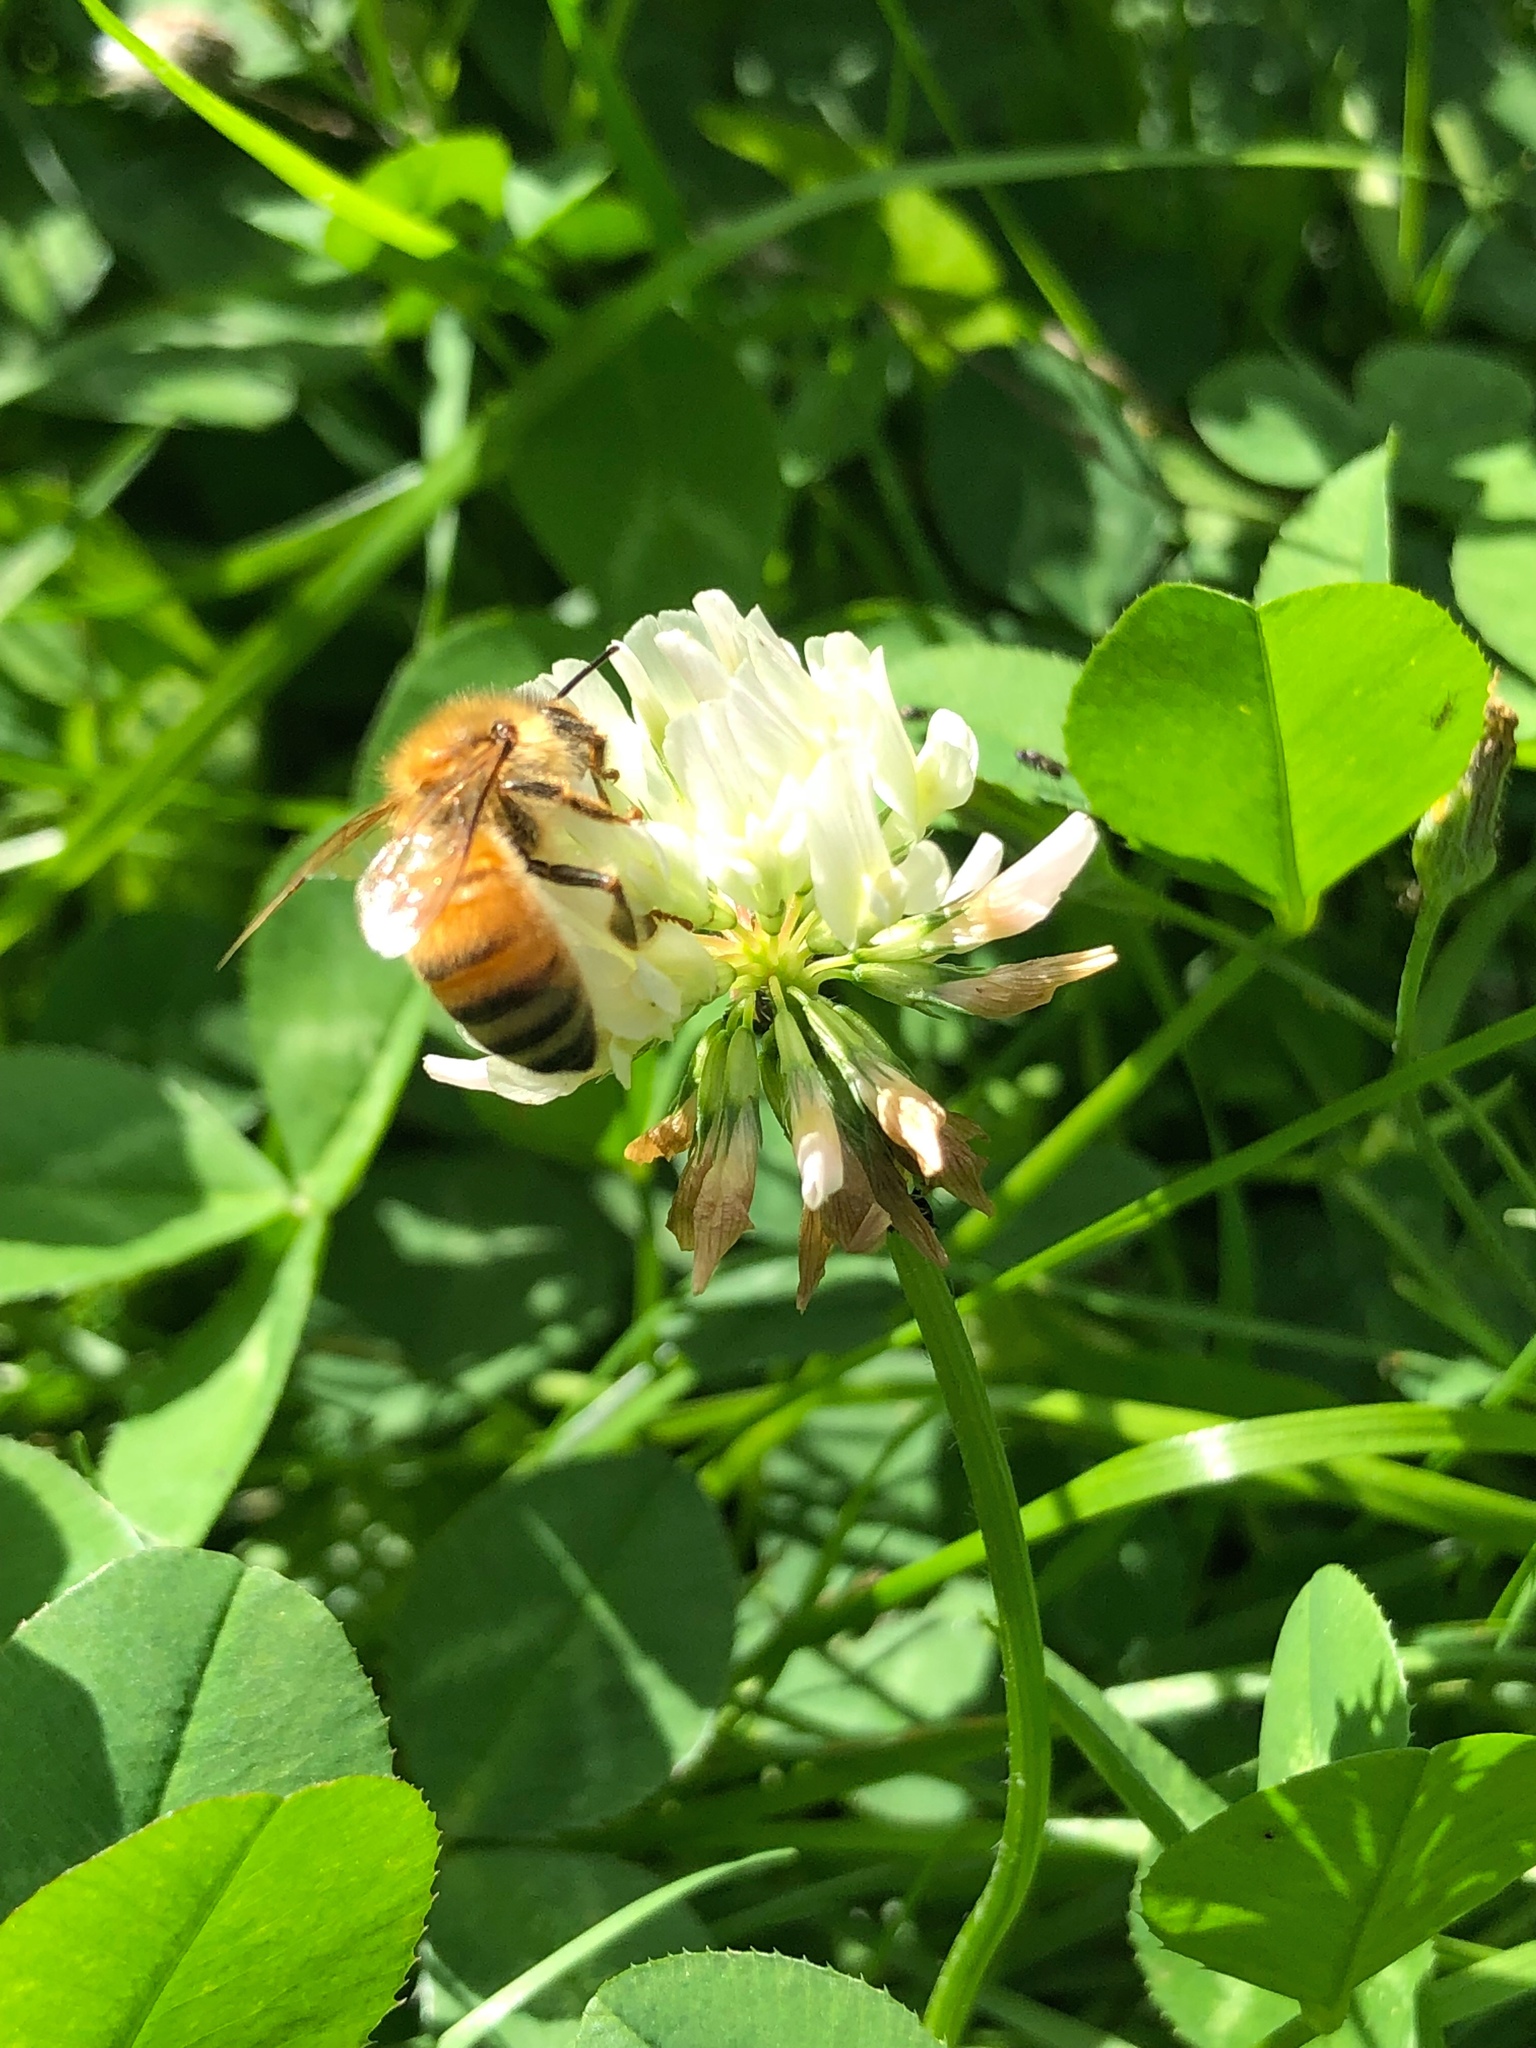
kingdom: Animalia
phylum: Arthropoda
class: Insecta
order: Hymenoptera
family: Apidae
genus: Apis
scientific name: Apis mellifera
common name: Honey bee
